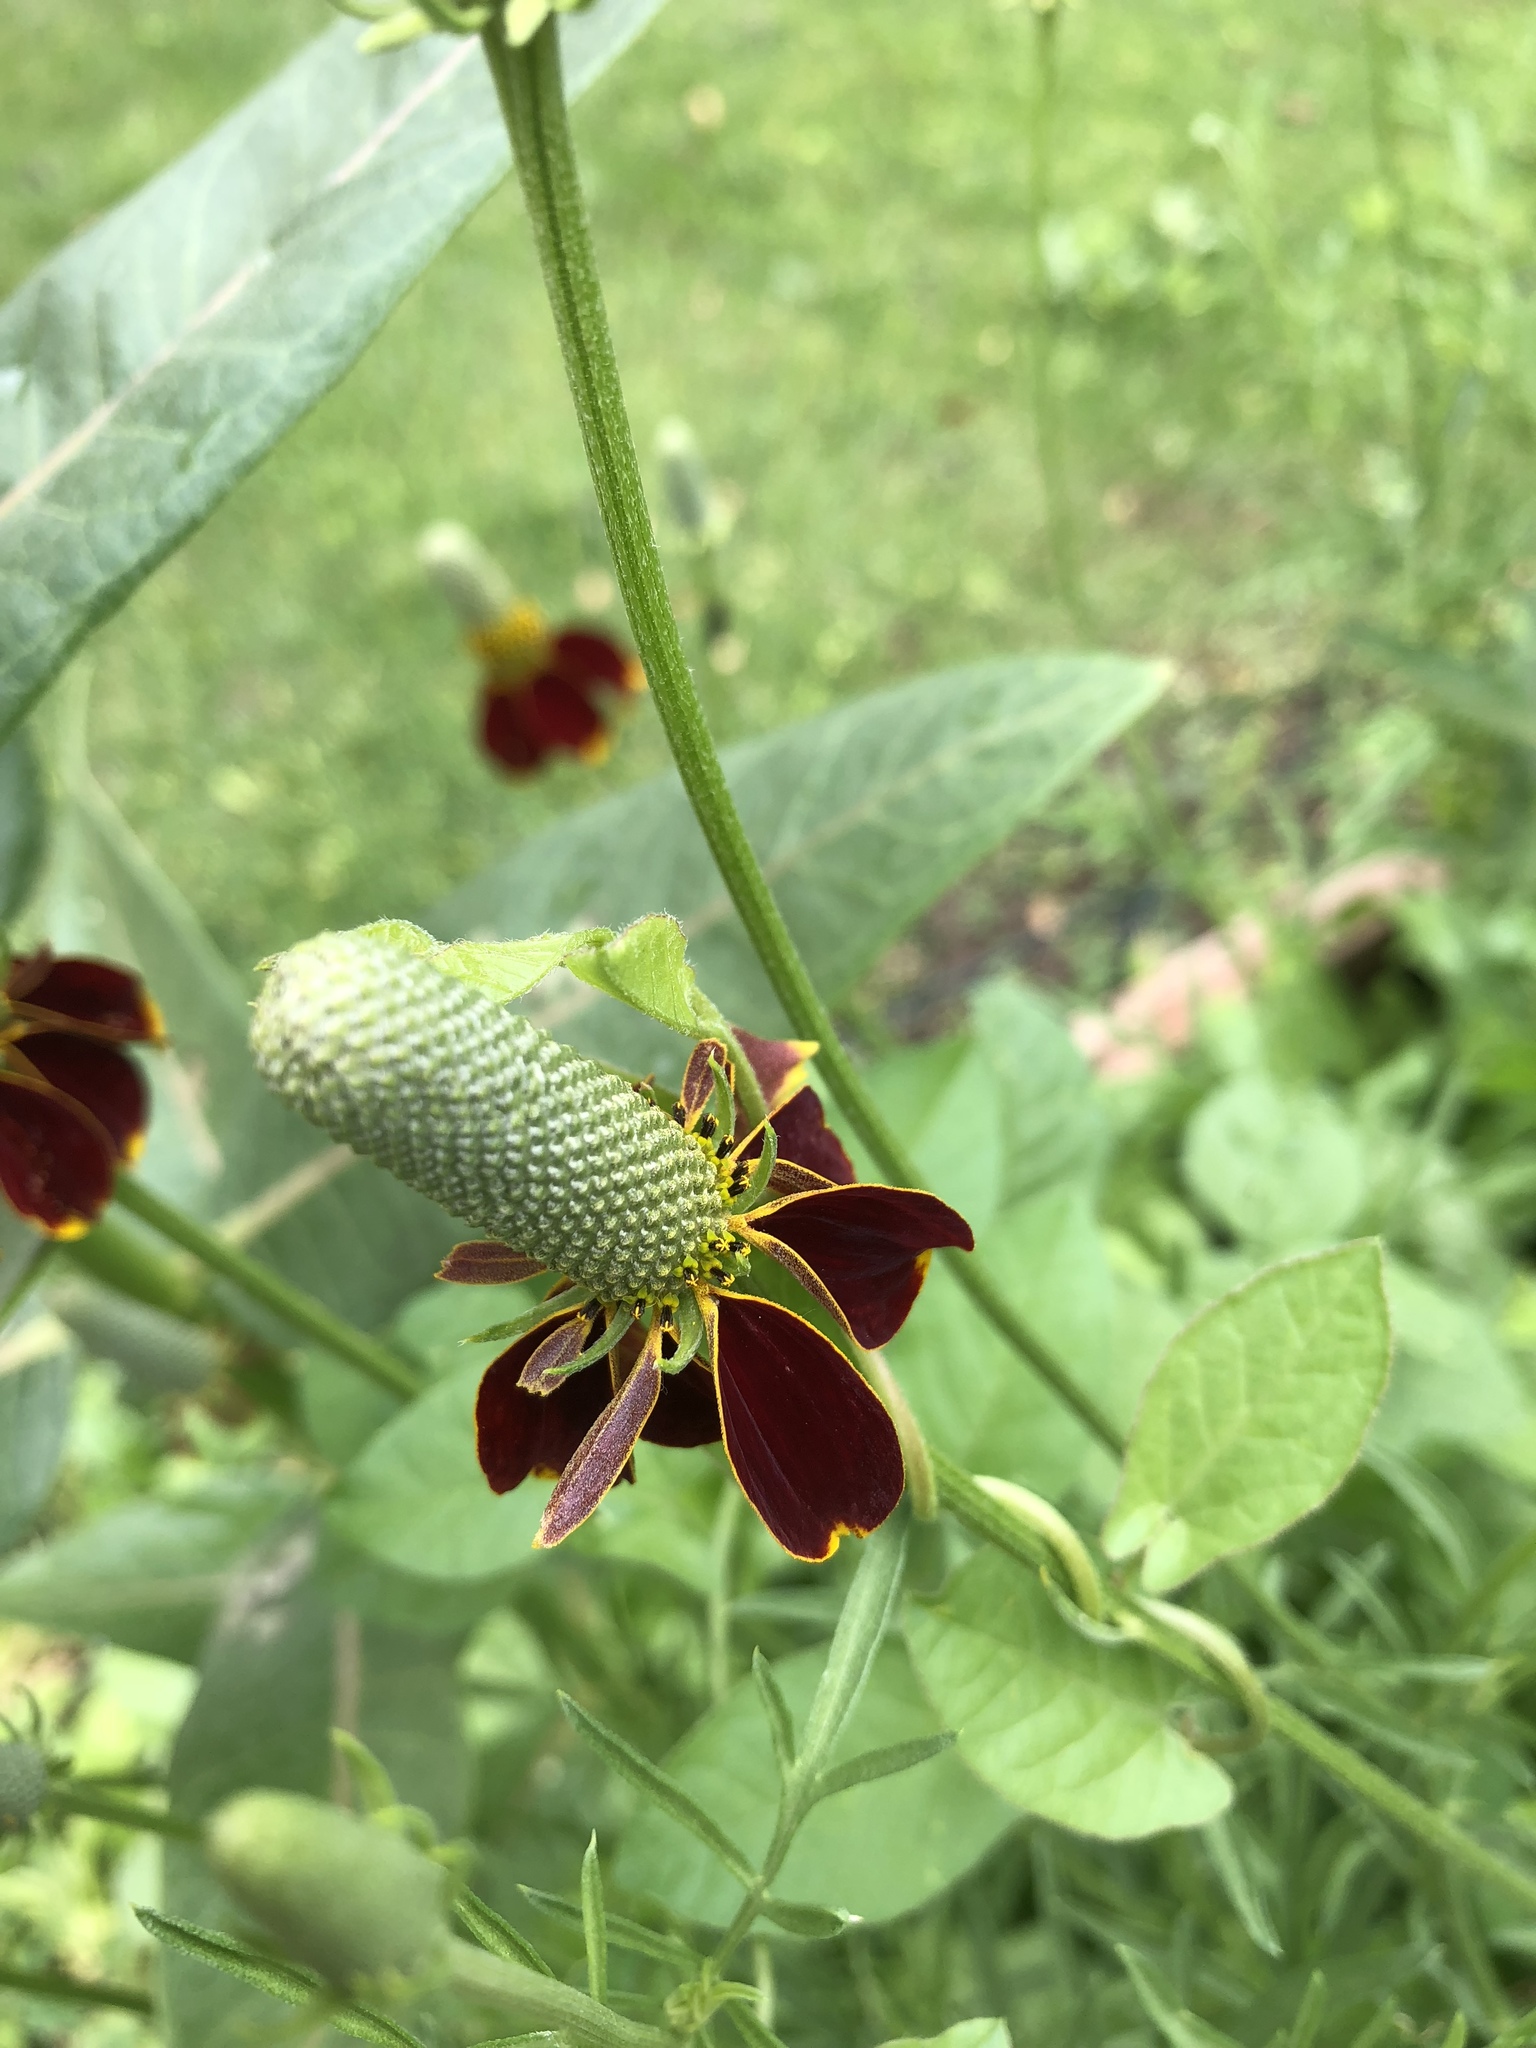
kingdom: Plantae
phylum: Tracheophyta
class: Magnoliopsida
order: Asterales
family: Asteraceae
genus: Ratibida
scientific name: Ratibida columnifera
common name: Prairie coneflower
